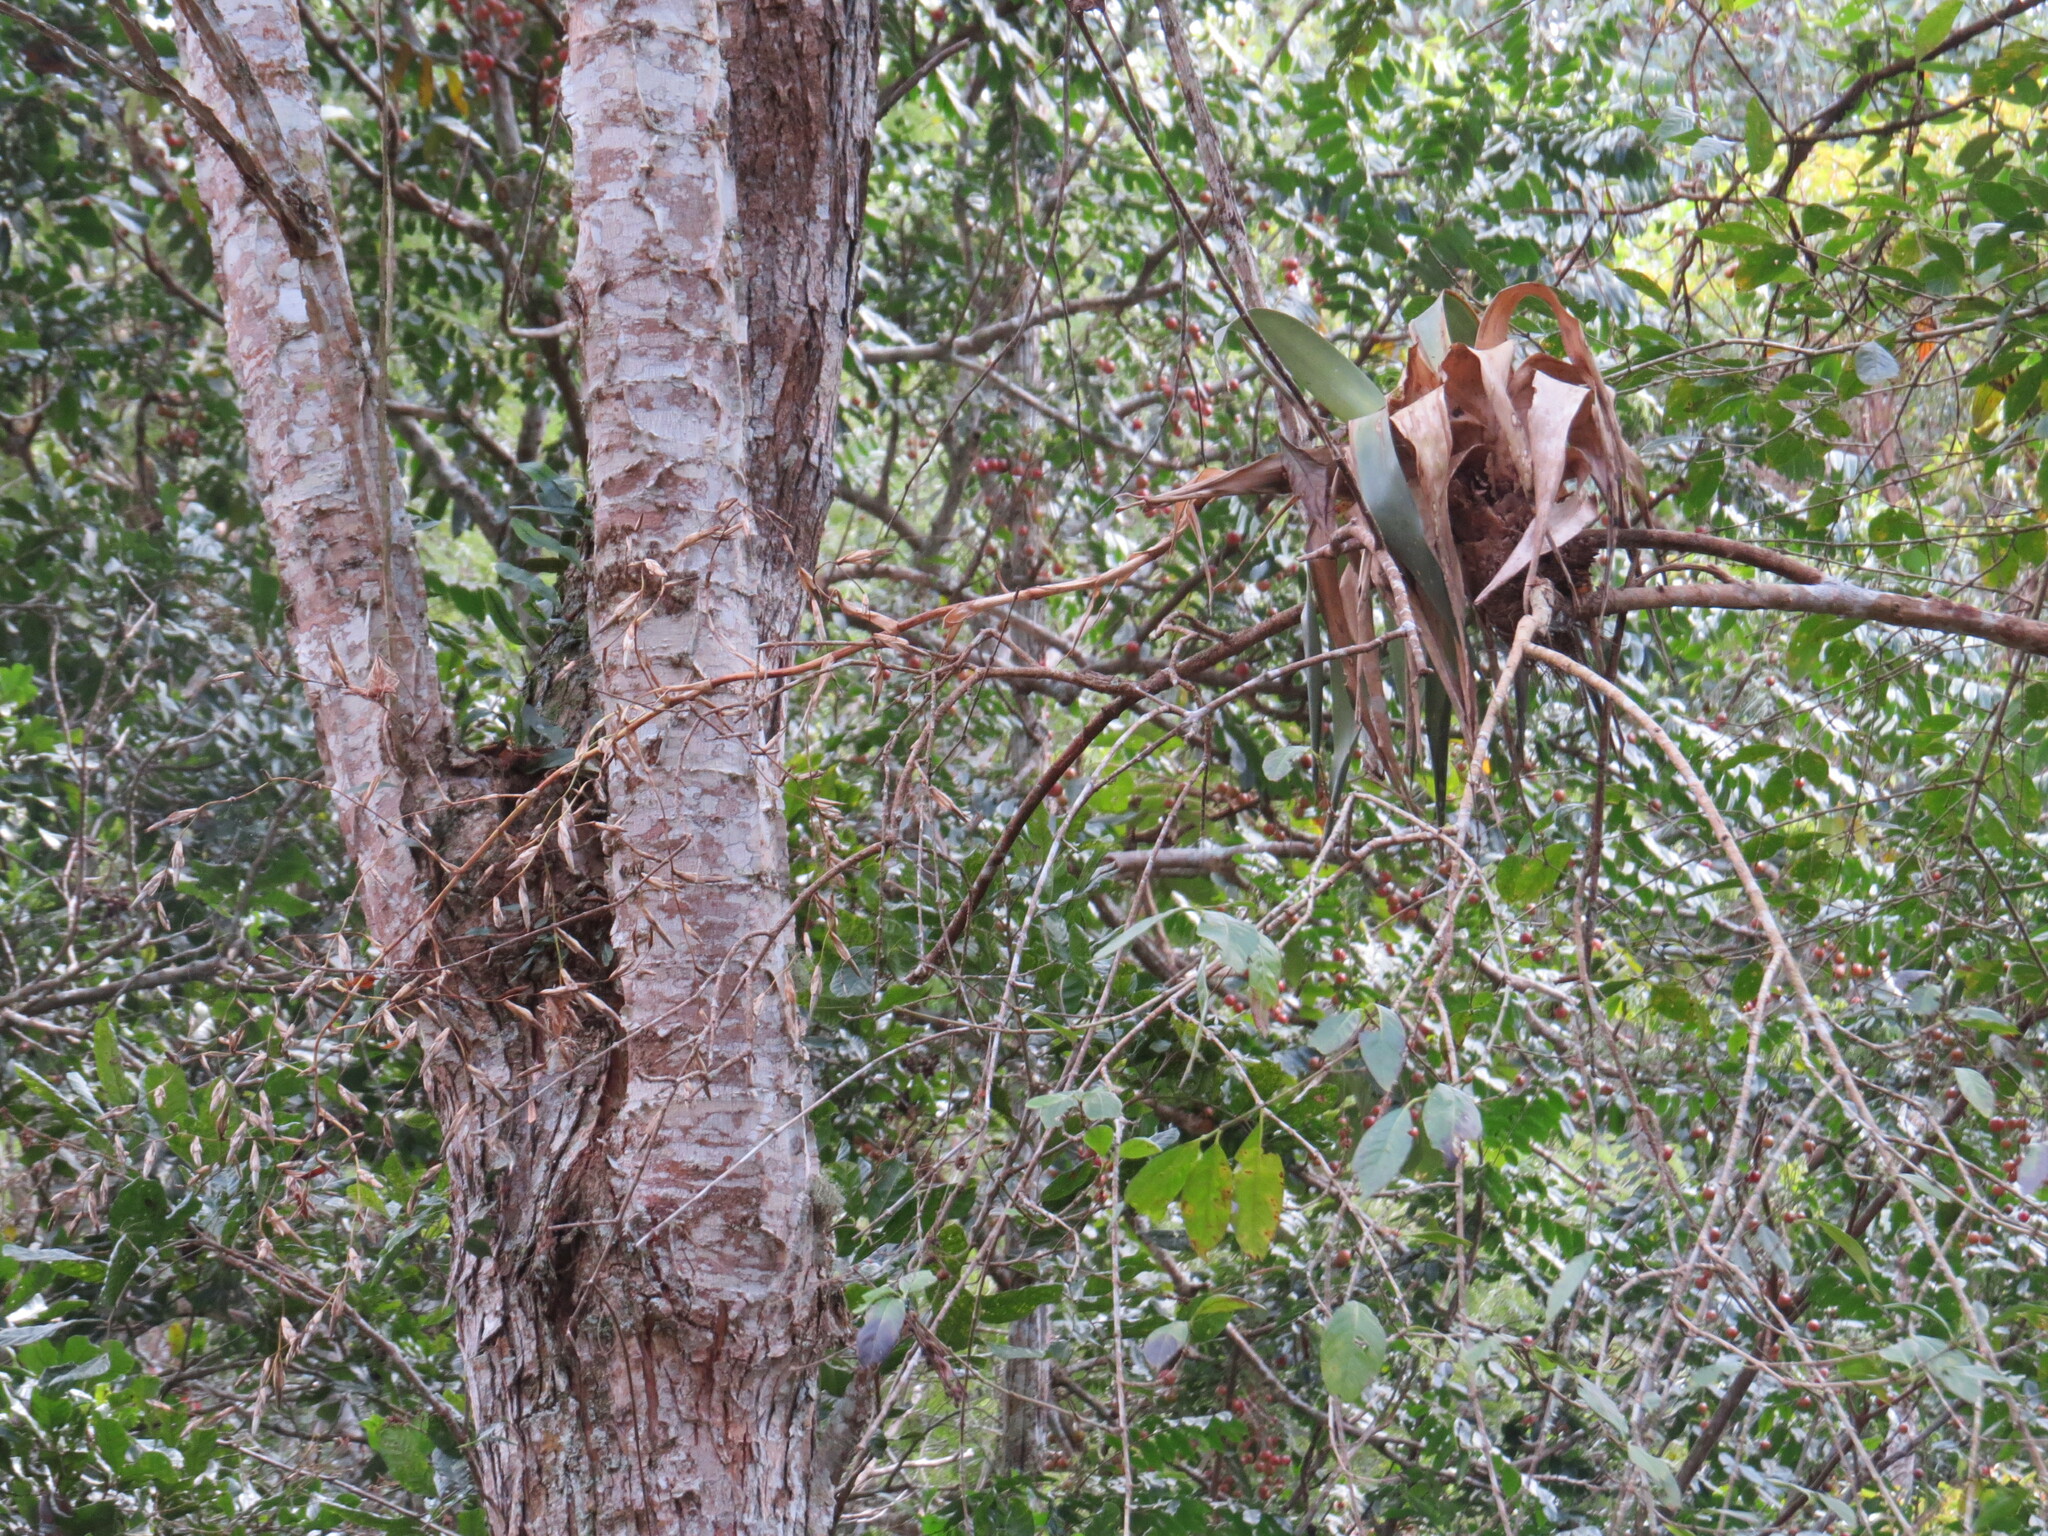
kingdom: Plantae
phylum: Tracheophyta
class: Liliopsida
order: Poales
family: Bromeliaceae
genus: Vriesea
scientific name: Vriesea procera
